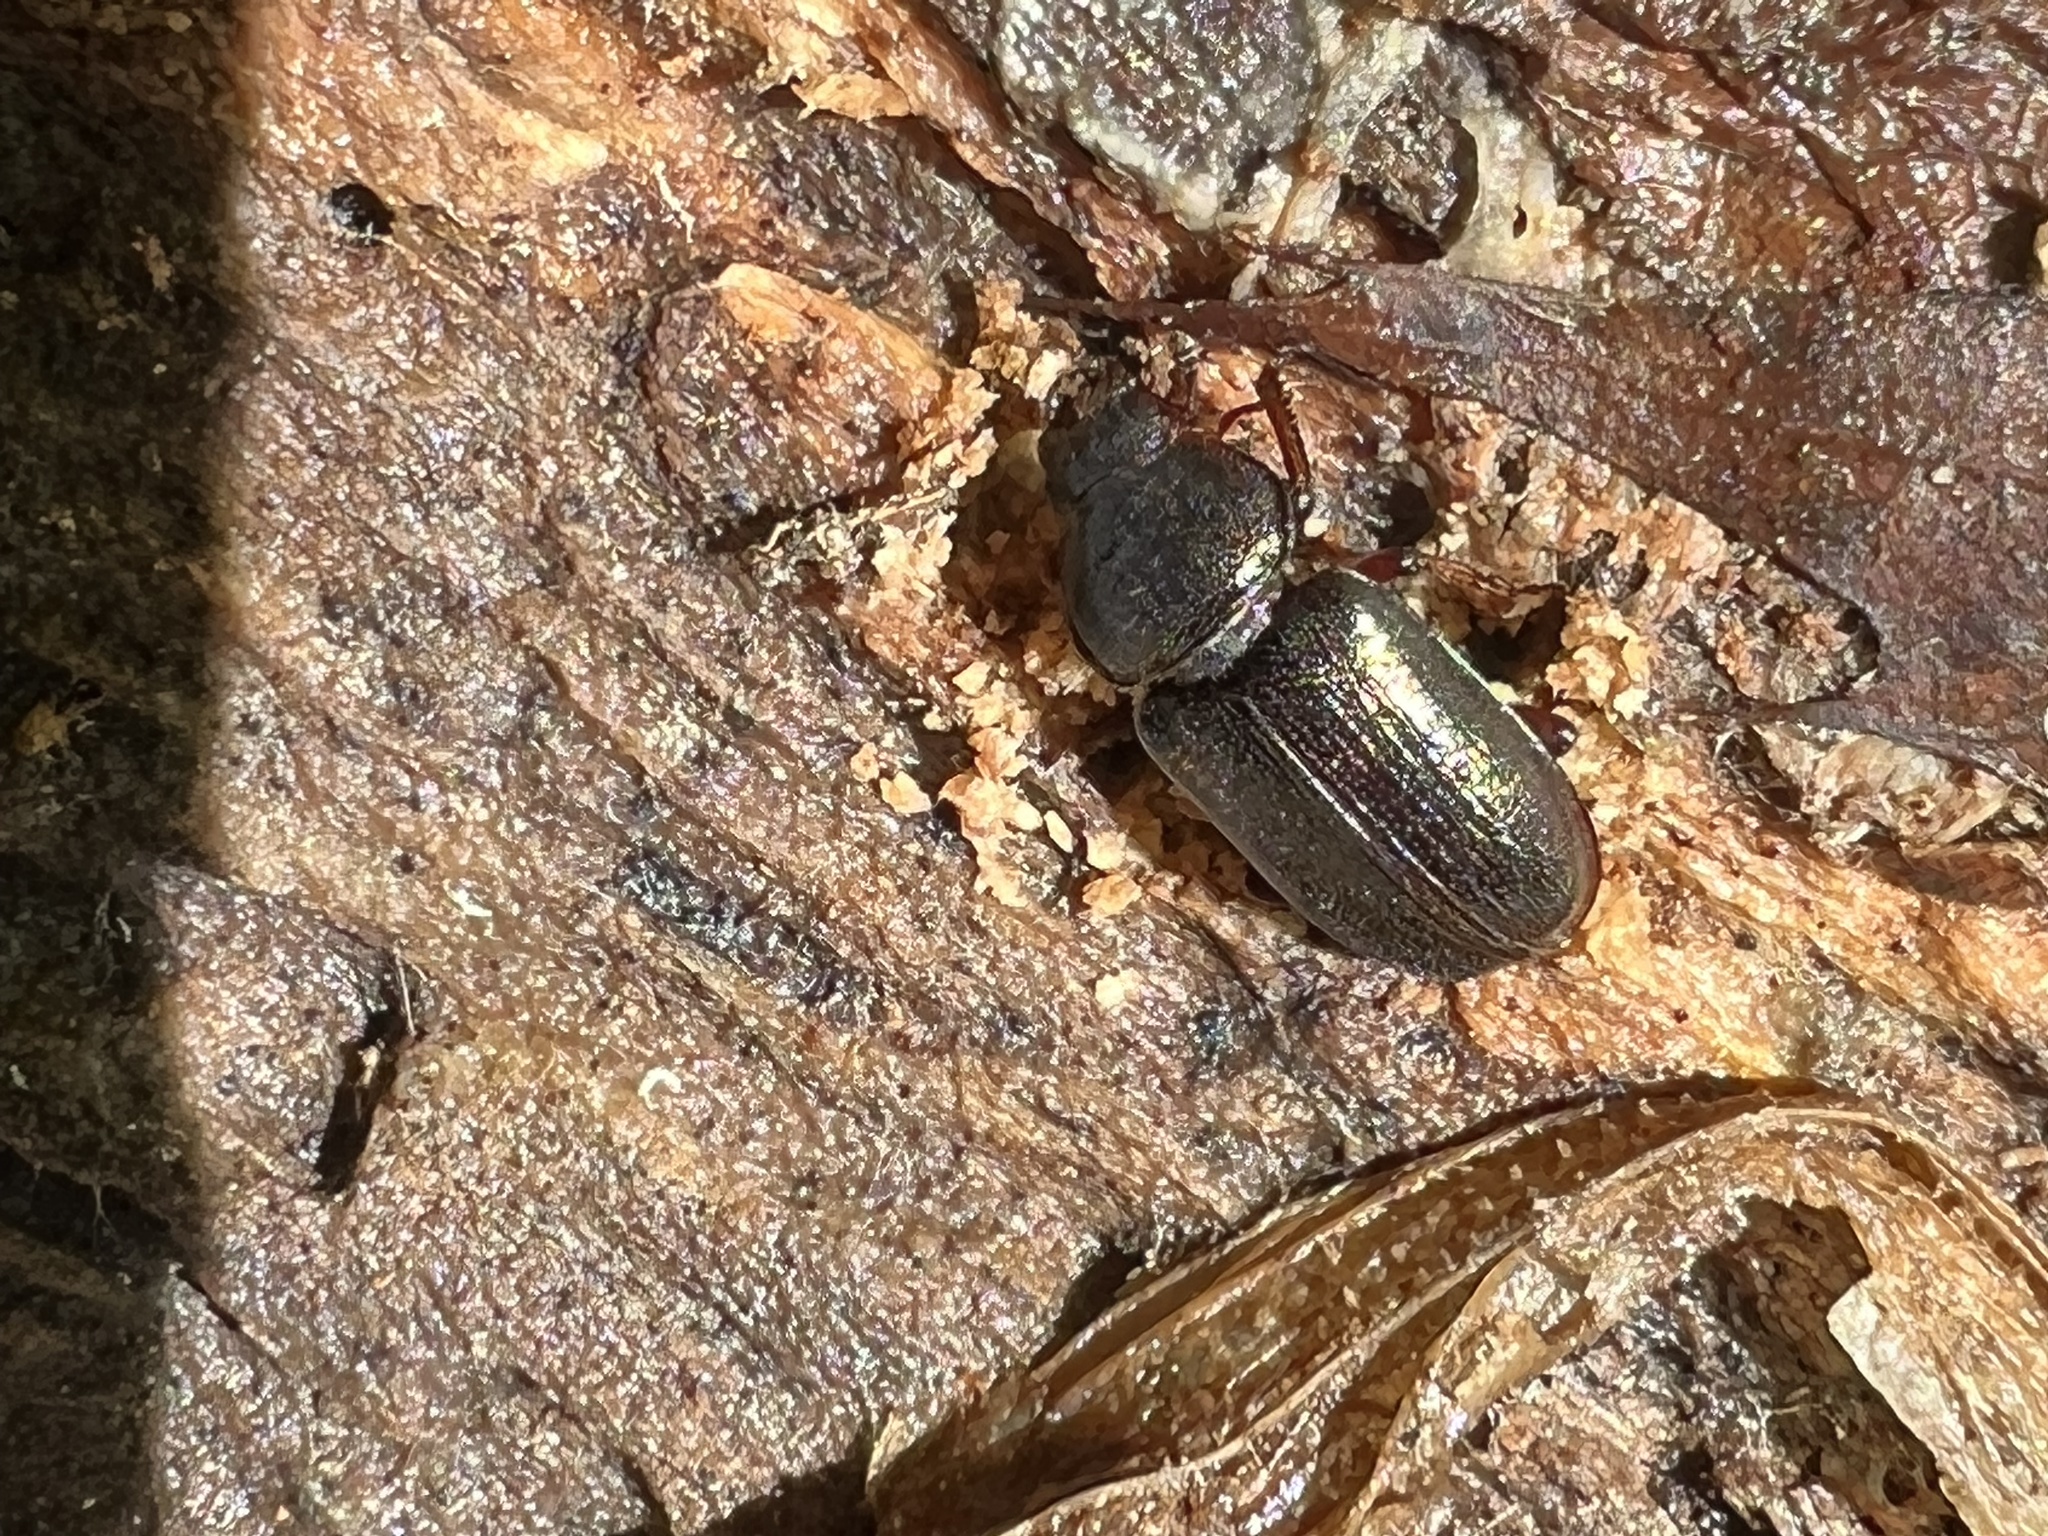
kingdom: Animalia
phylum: Arthropoda
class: Insecta
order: Coleoptera
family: Lucanidae
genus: Platycerus
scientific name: Platycerus quercus
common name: Oak stag beetle
